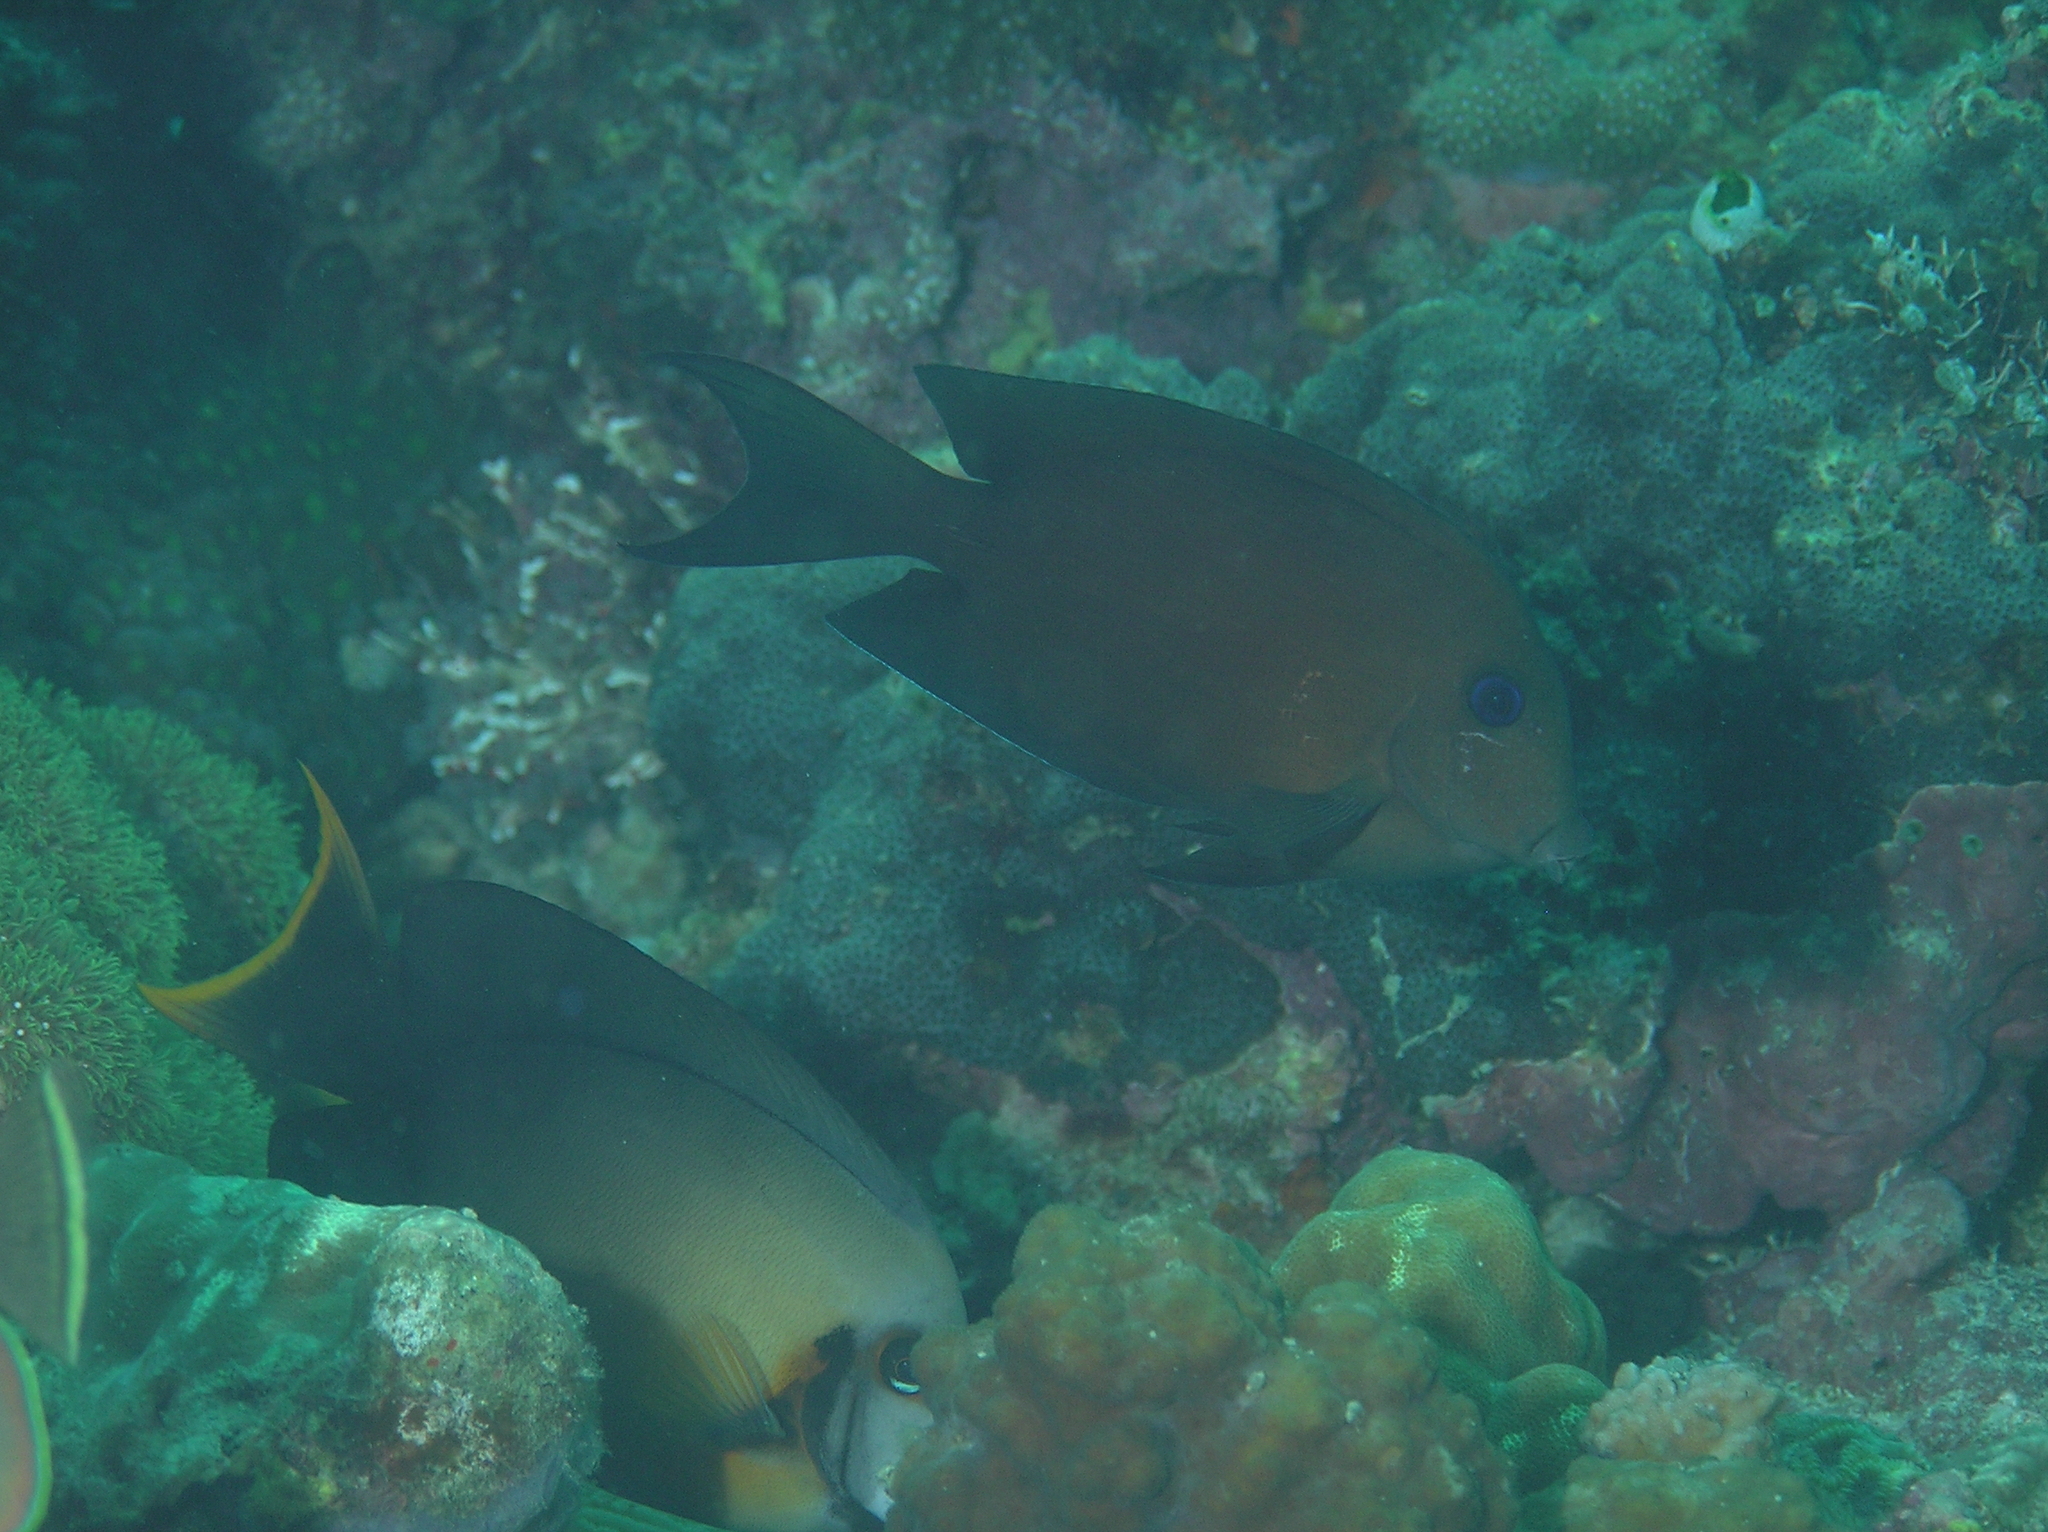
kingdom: Animalia
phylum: Chordata
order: Perciformes
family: Acanthuridae
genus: Ctenochaetus
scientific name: Ctenochaetus binotatus
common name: Two-spot bristletooth
